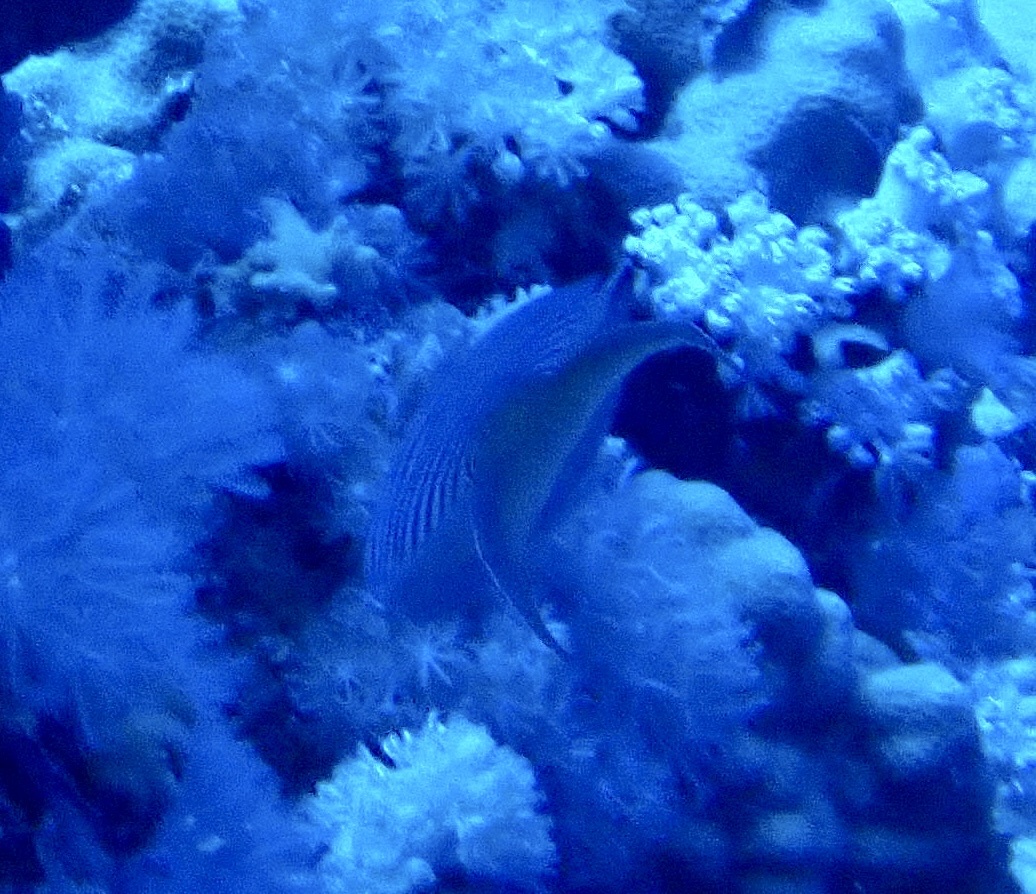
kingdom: Animalia
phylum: Chordata
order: Perciformes
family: Pomacanthidae
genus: Genicanthus
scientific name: Genicanthus caudovittatus
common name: Lyretail angelfish
